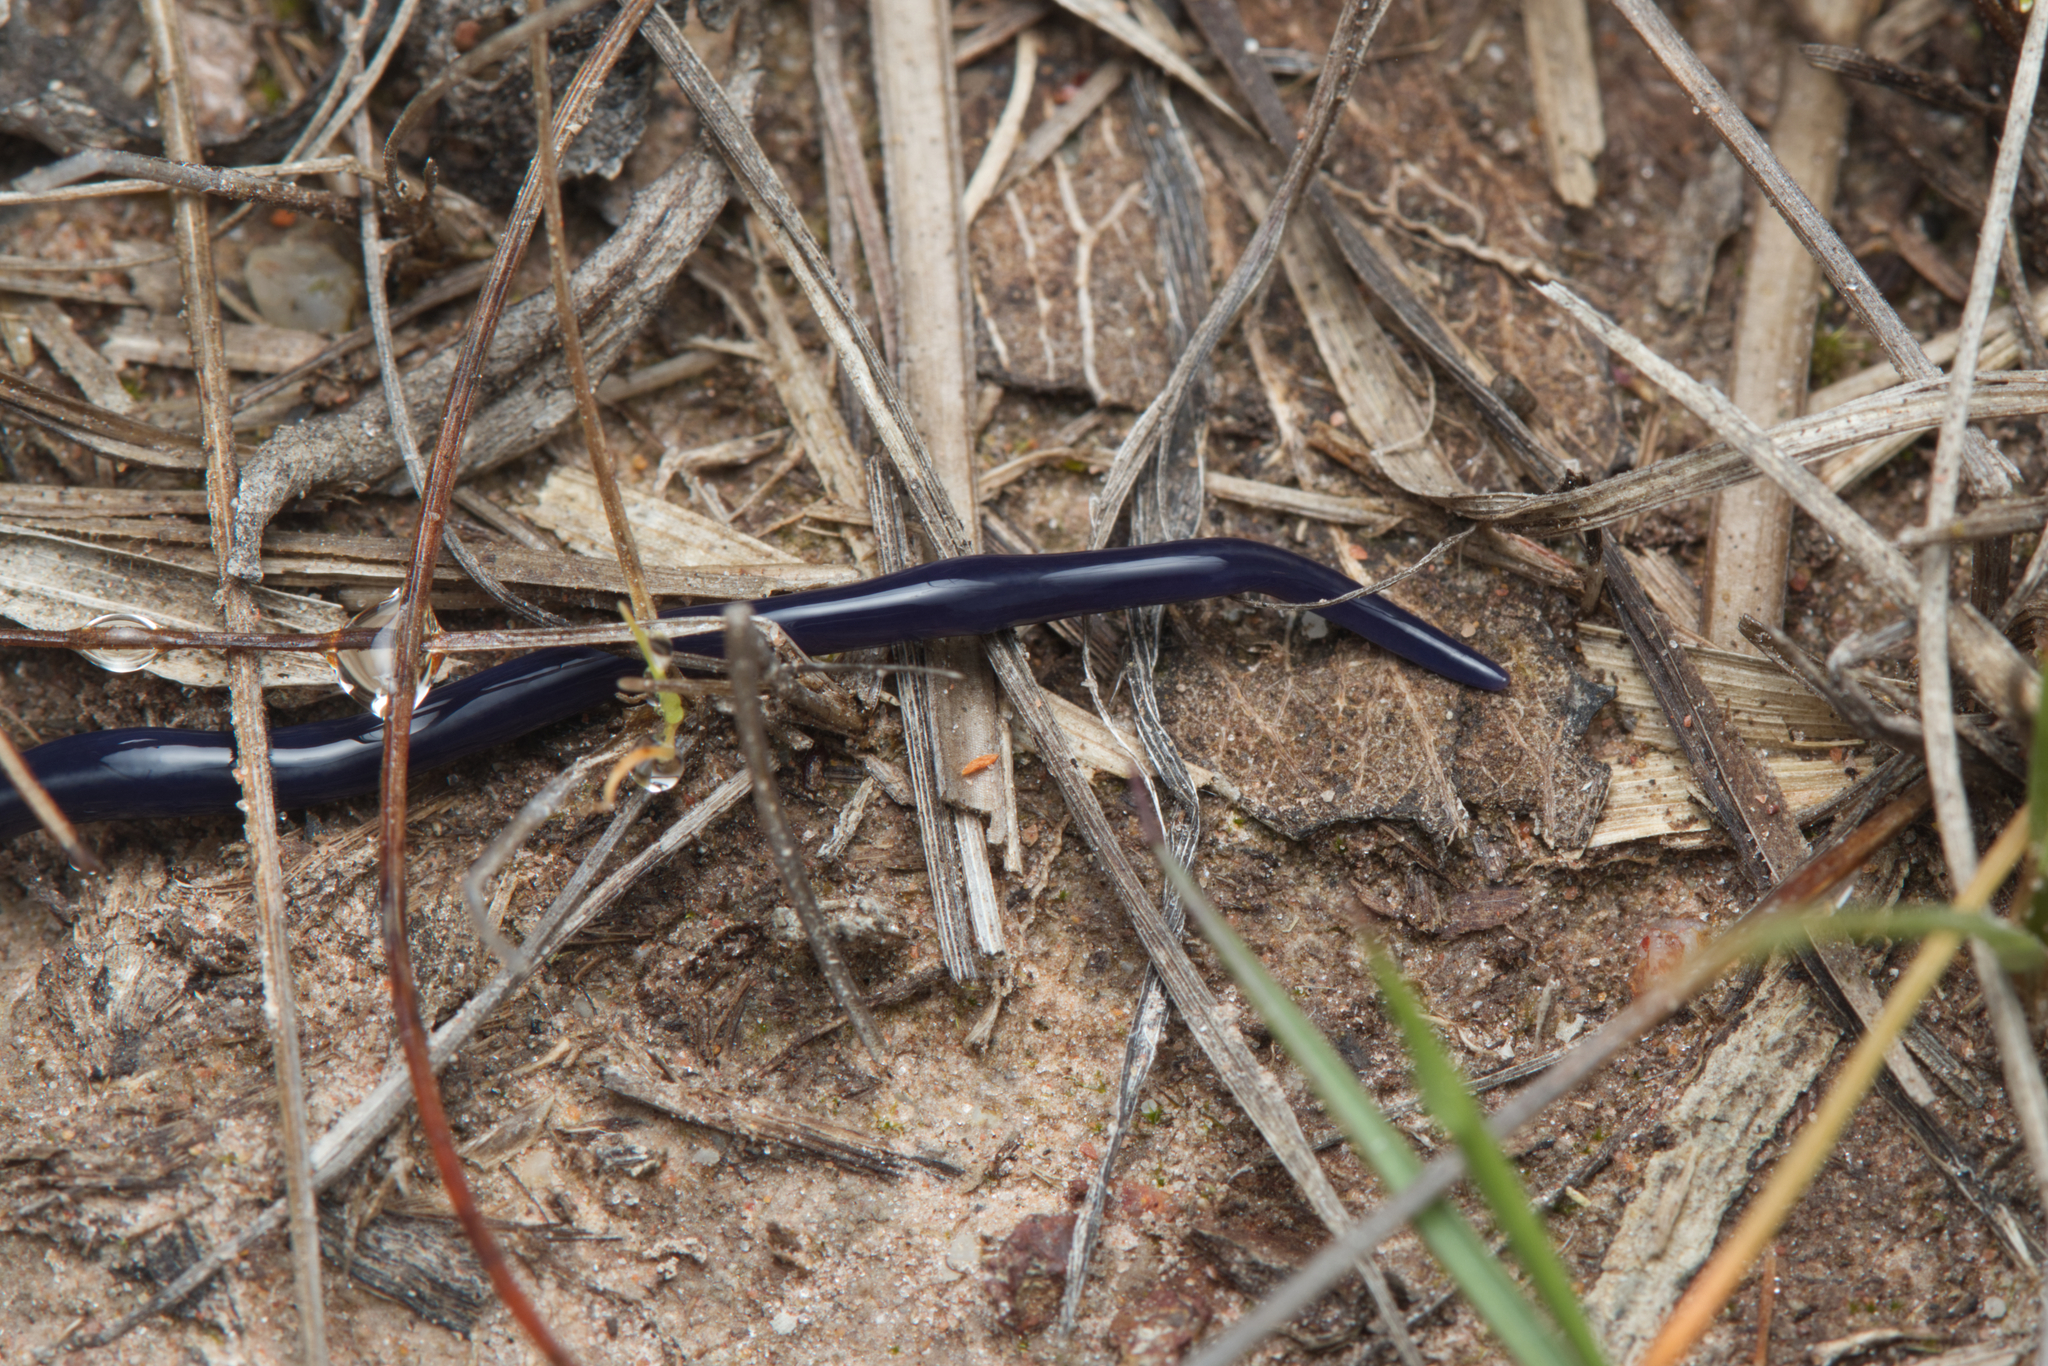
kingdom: Animalia
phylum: Platyhelminthes
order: Tricladida
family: Geoplanidae
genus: Caenoplana
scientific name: Caenoplana coerulea
